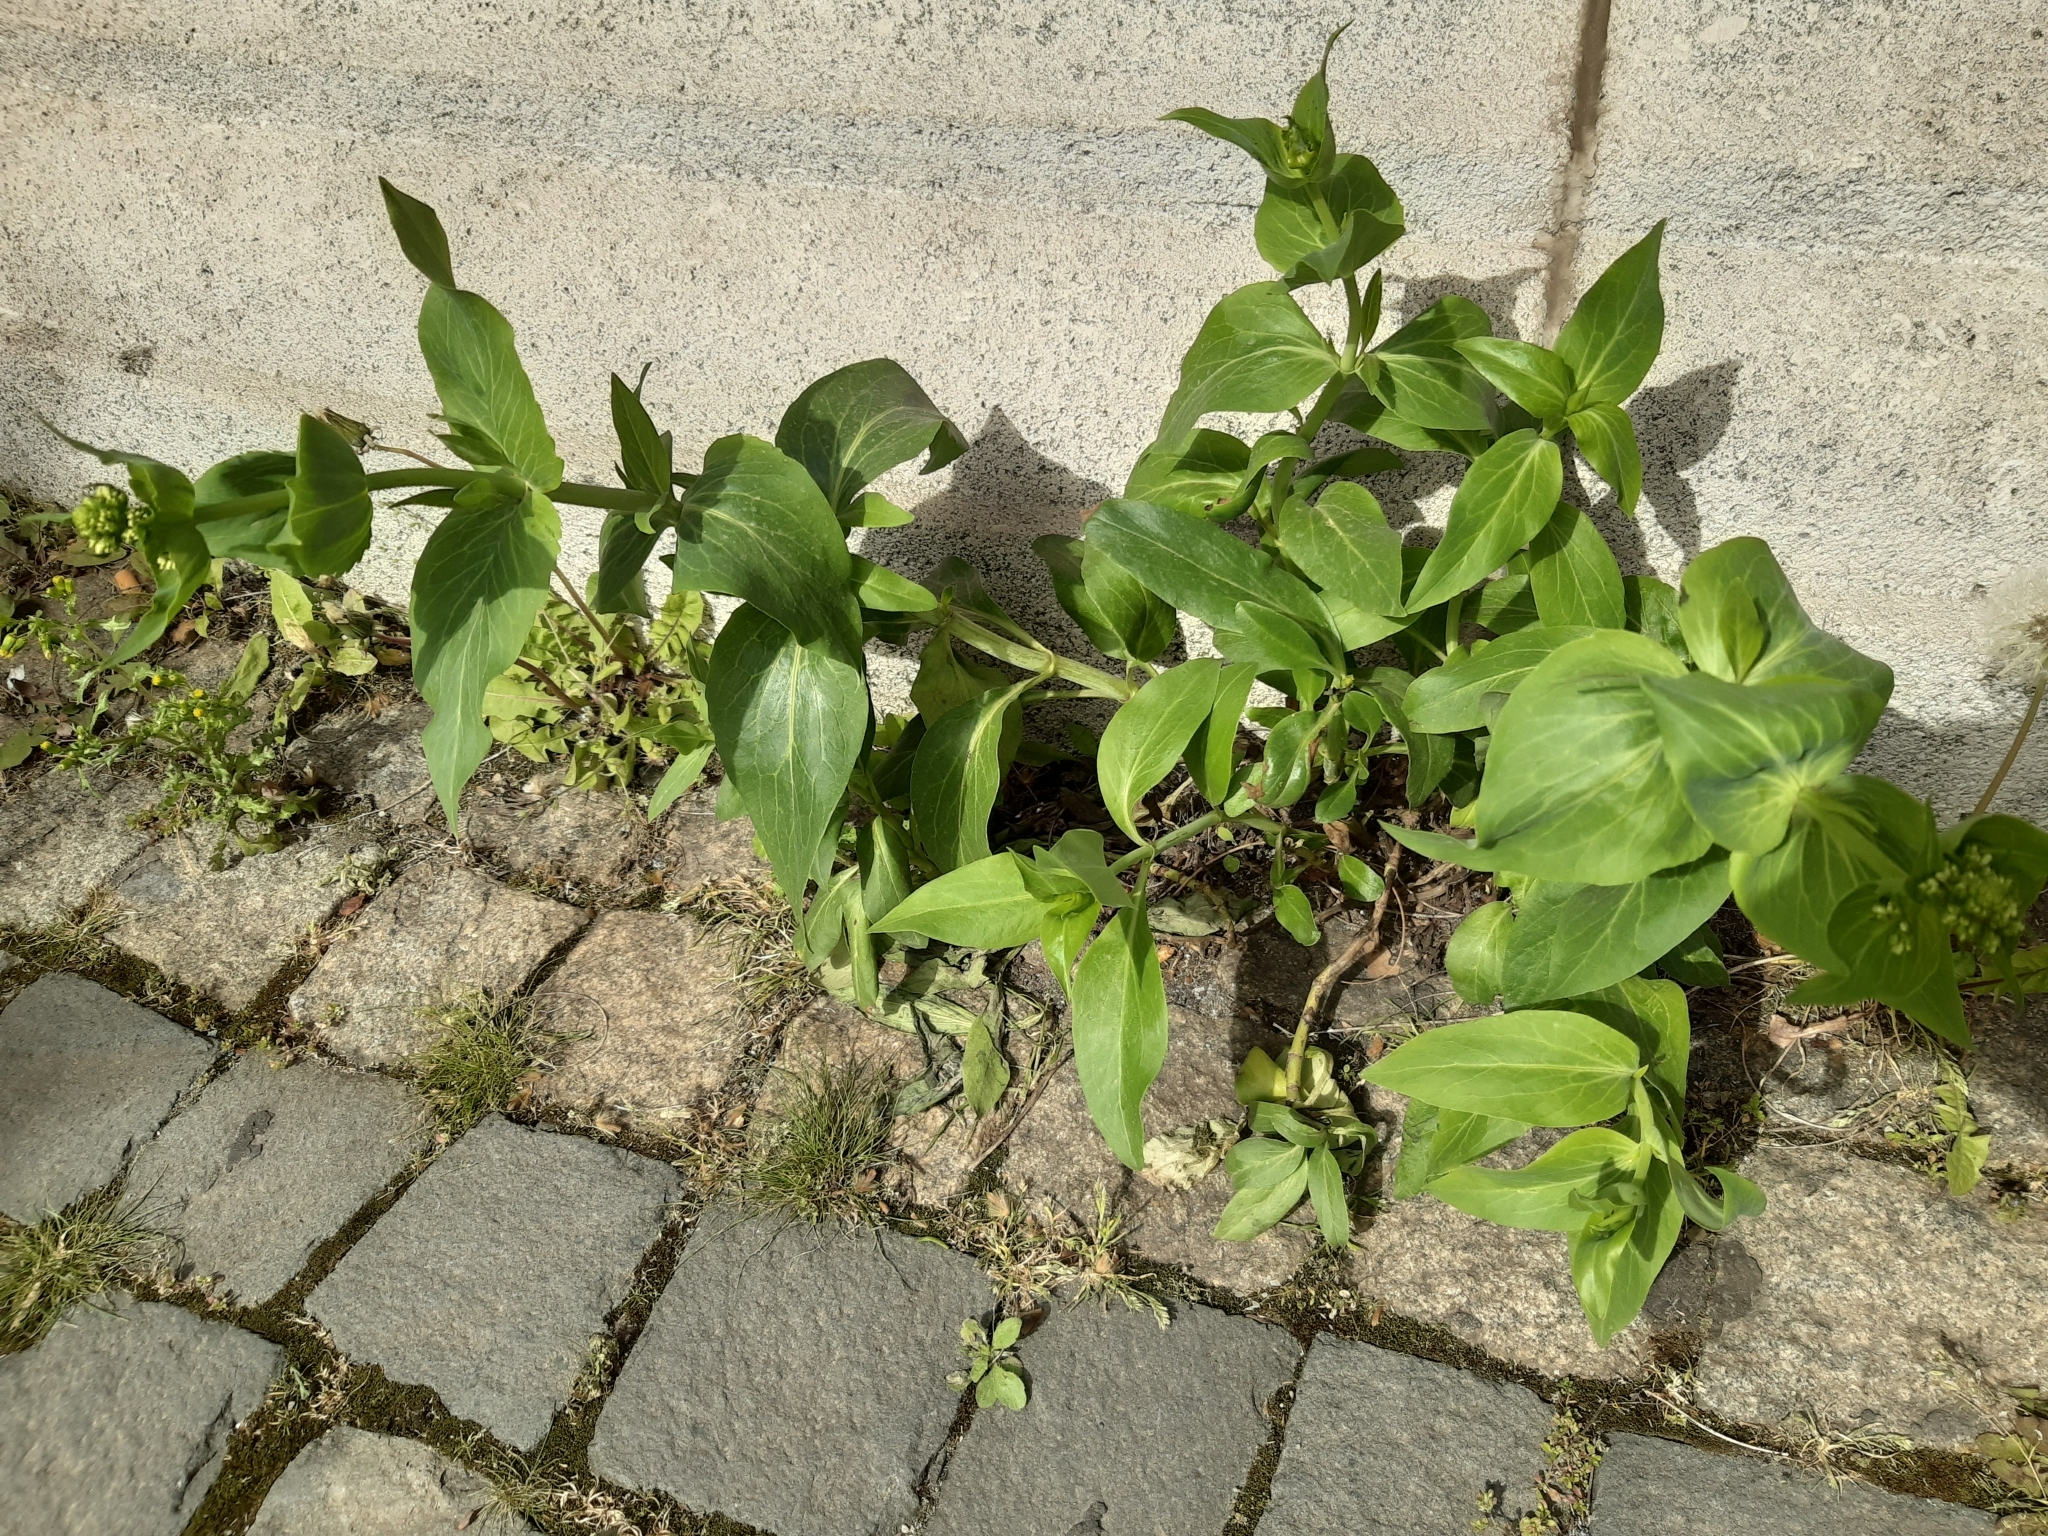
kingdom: Plantae
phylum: Tracheophyta
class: Magnoliopsida
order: Dipsacales
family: Caprifoliaceae
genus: Centranthus
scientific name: Centranthus ruber
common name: Red valerian
